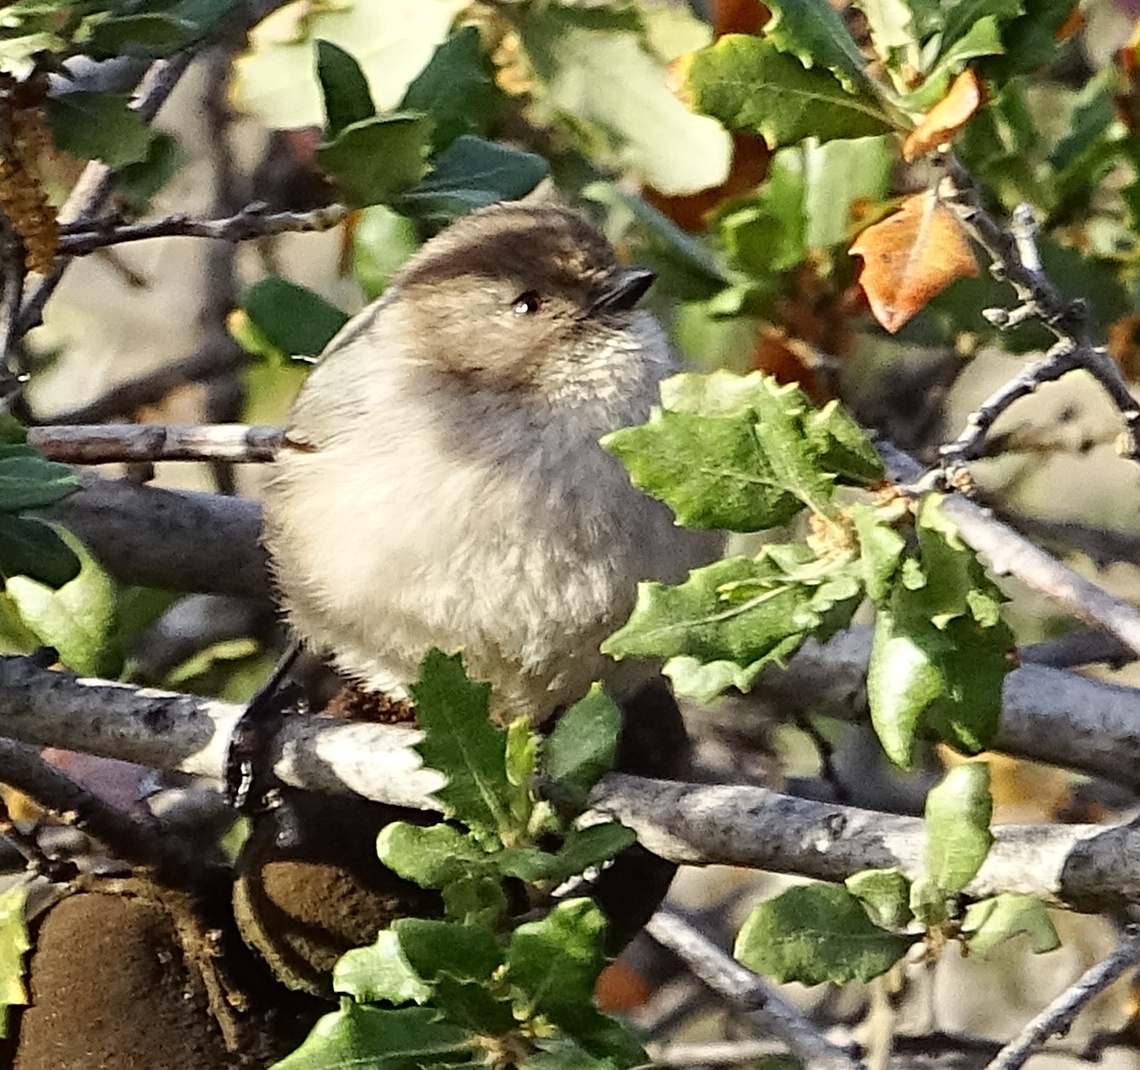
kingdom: Animalia
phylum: Chordata
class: Aves
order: Passeriformes
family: Aegithalidae
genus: Psaltriparus
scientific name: Psaltriparus minimus
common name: American bushtit
